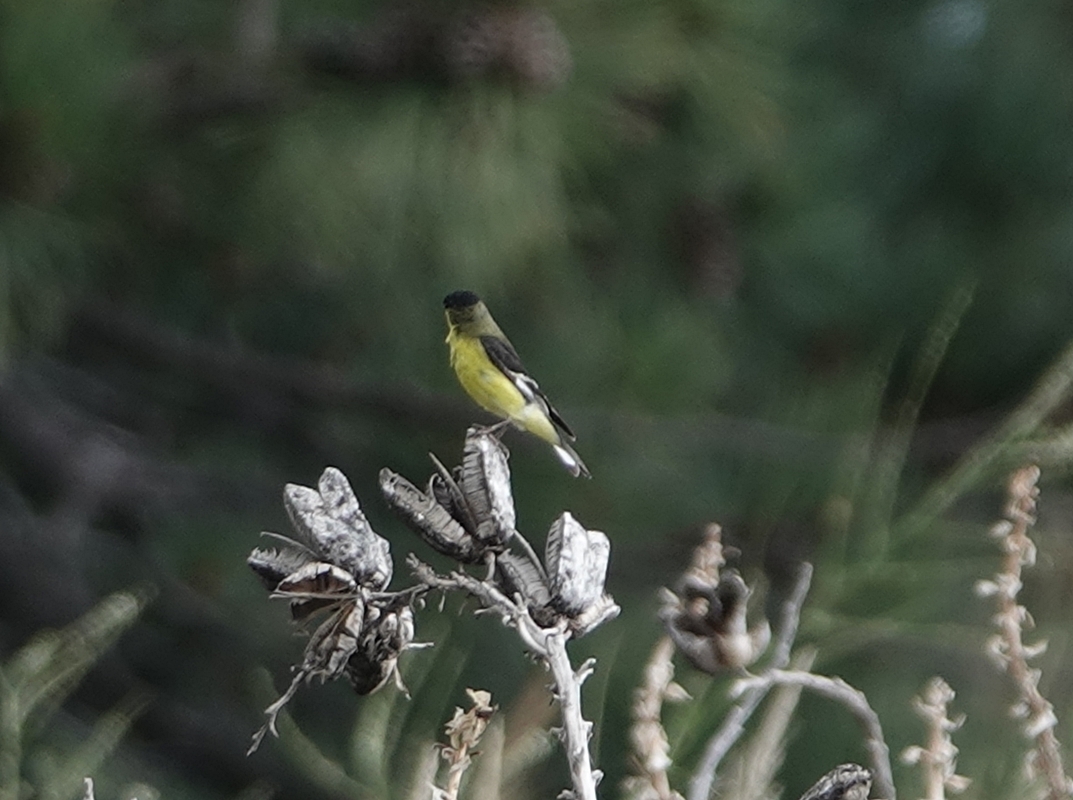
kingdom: Animalia
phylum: Chordata
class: Aves
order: Passeriformes
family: Fringillidae
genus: Spinus
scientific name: Spinus psaltria
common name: Lesser goldfinch
